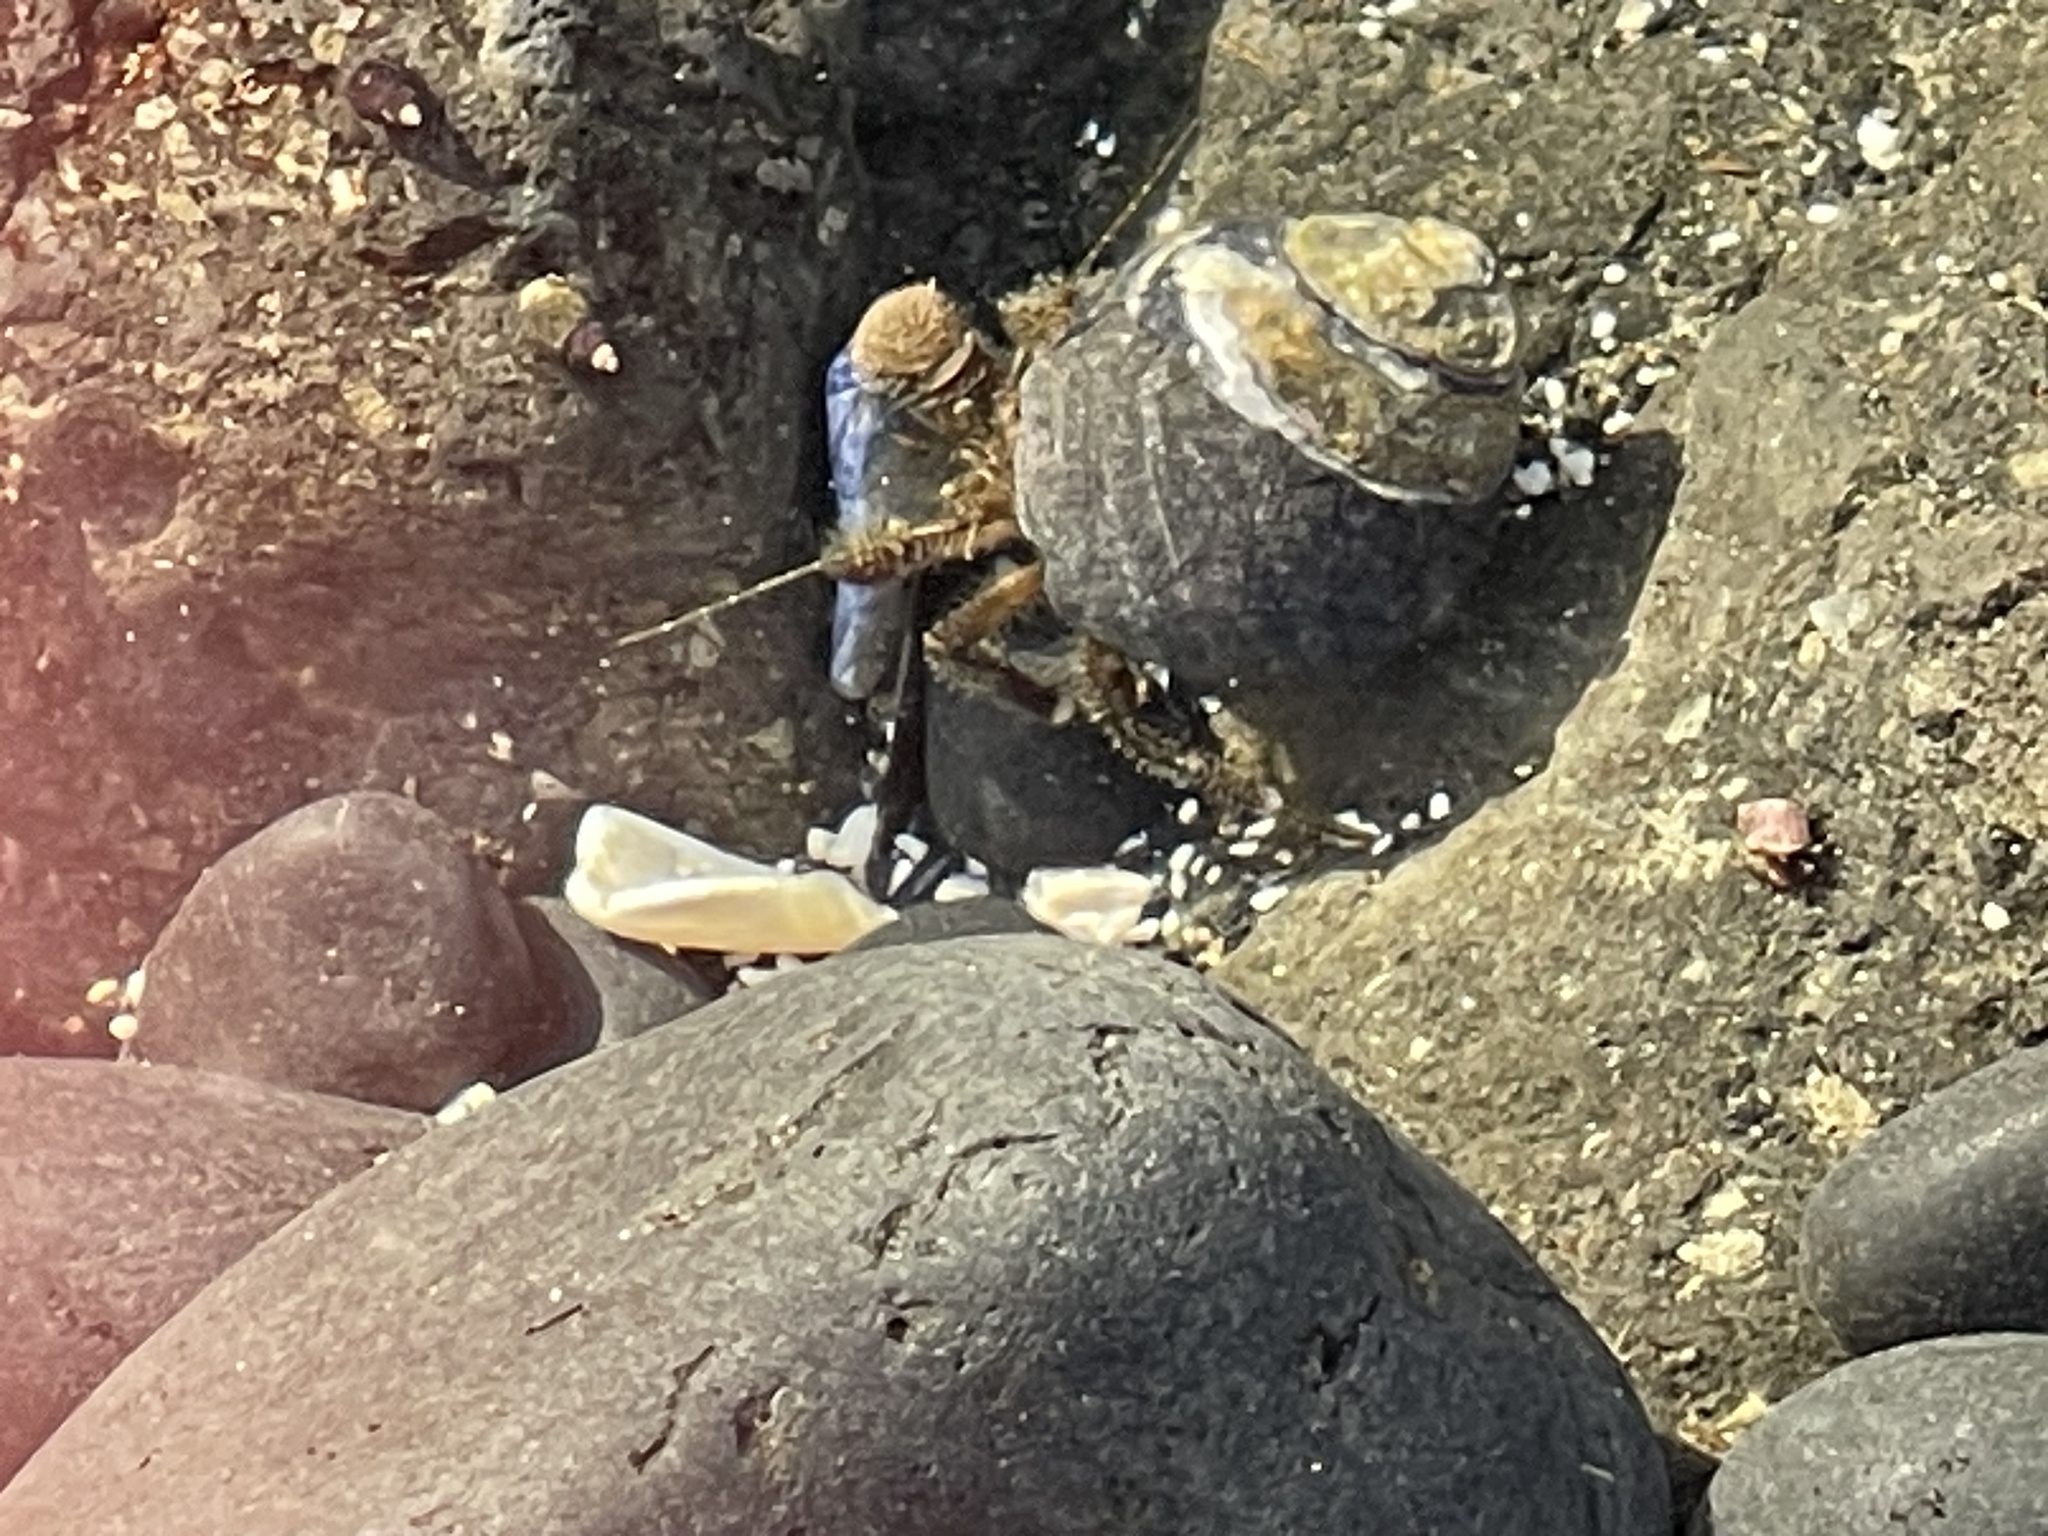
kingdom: Animalia
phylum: Arthropoda
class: Malacostraca
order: Decapoda
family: Paguridae
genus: Pagurus
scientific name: Pagurus hirsutiusculus
